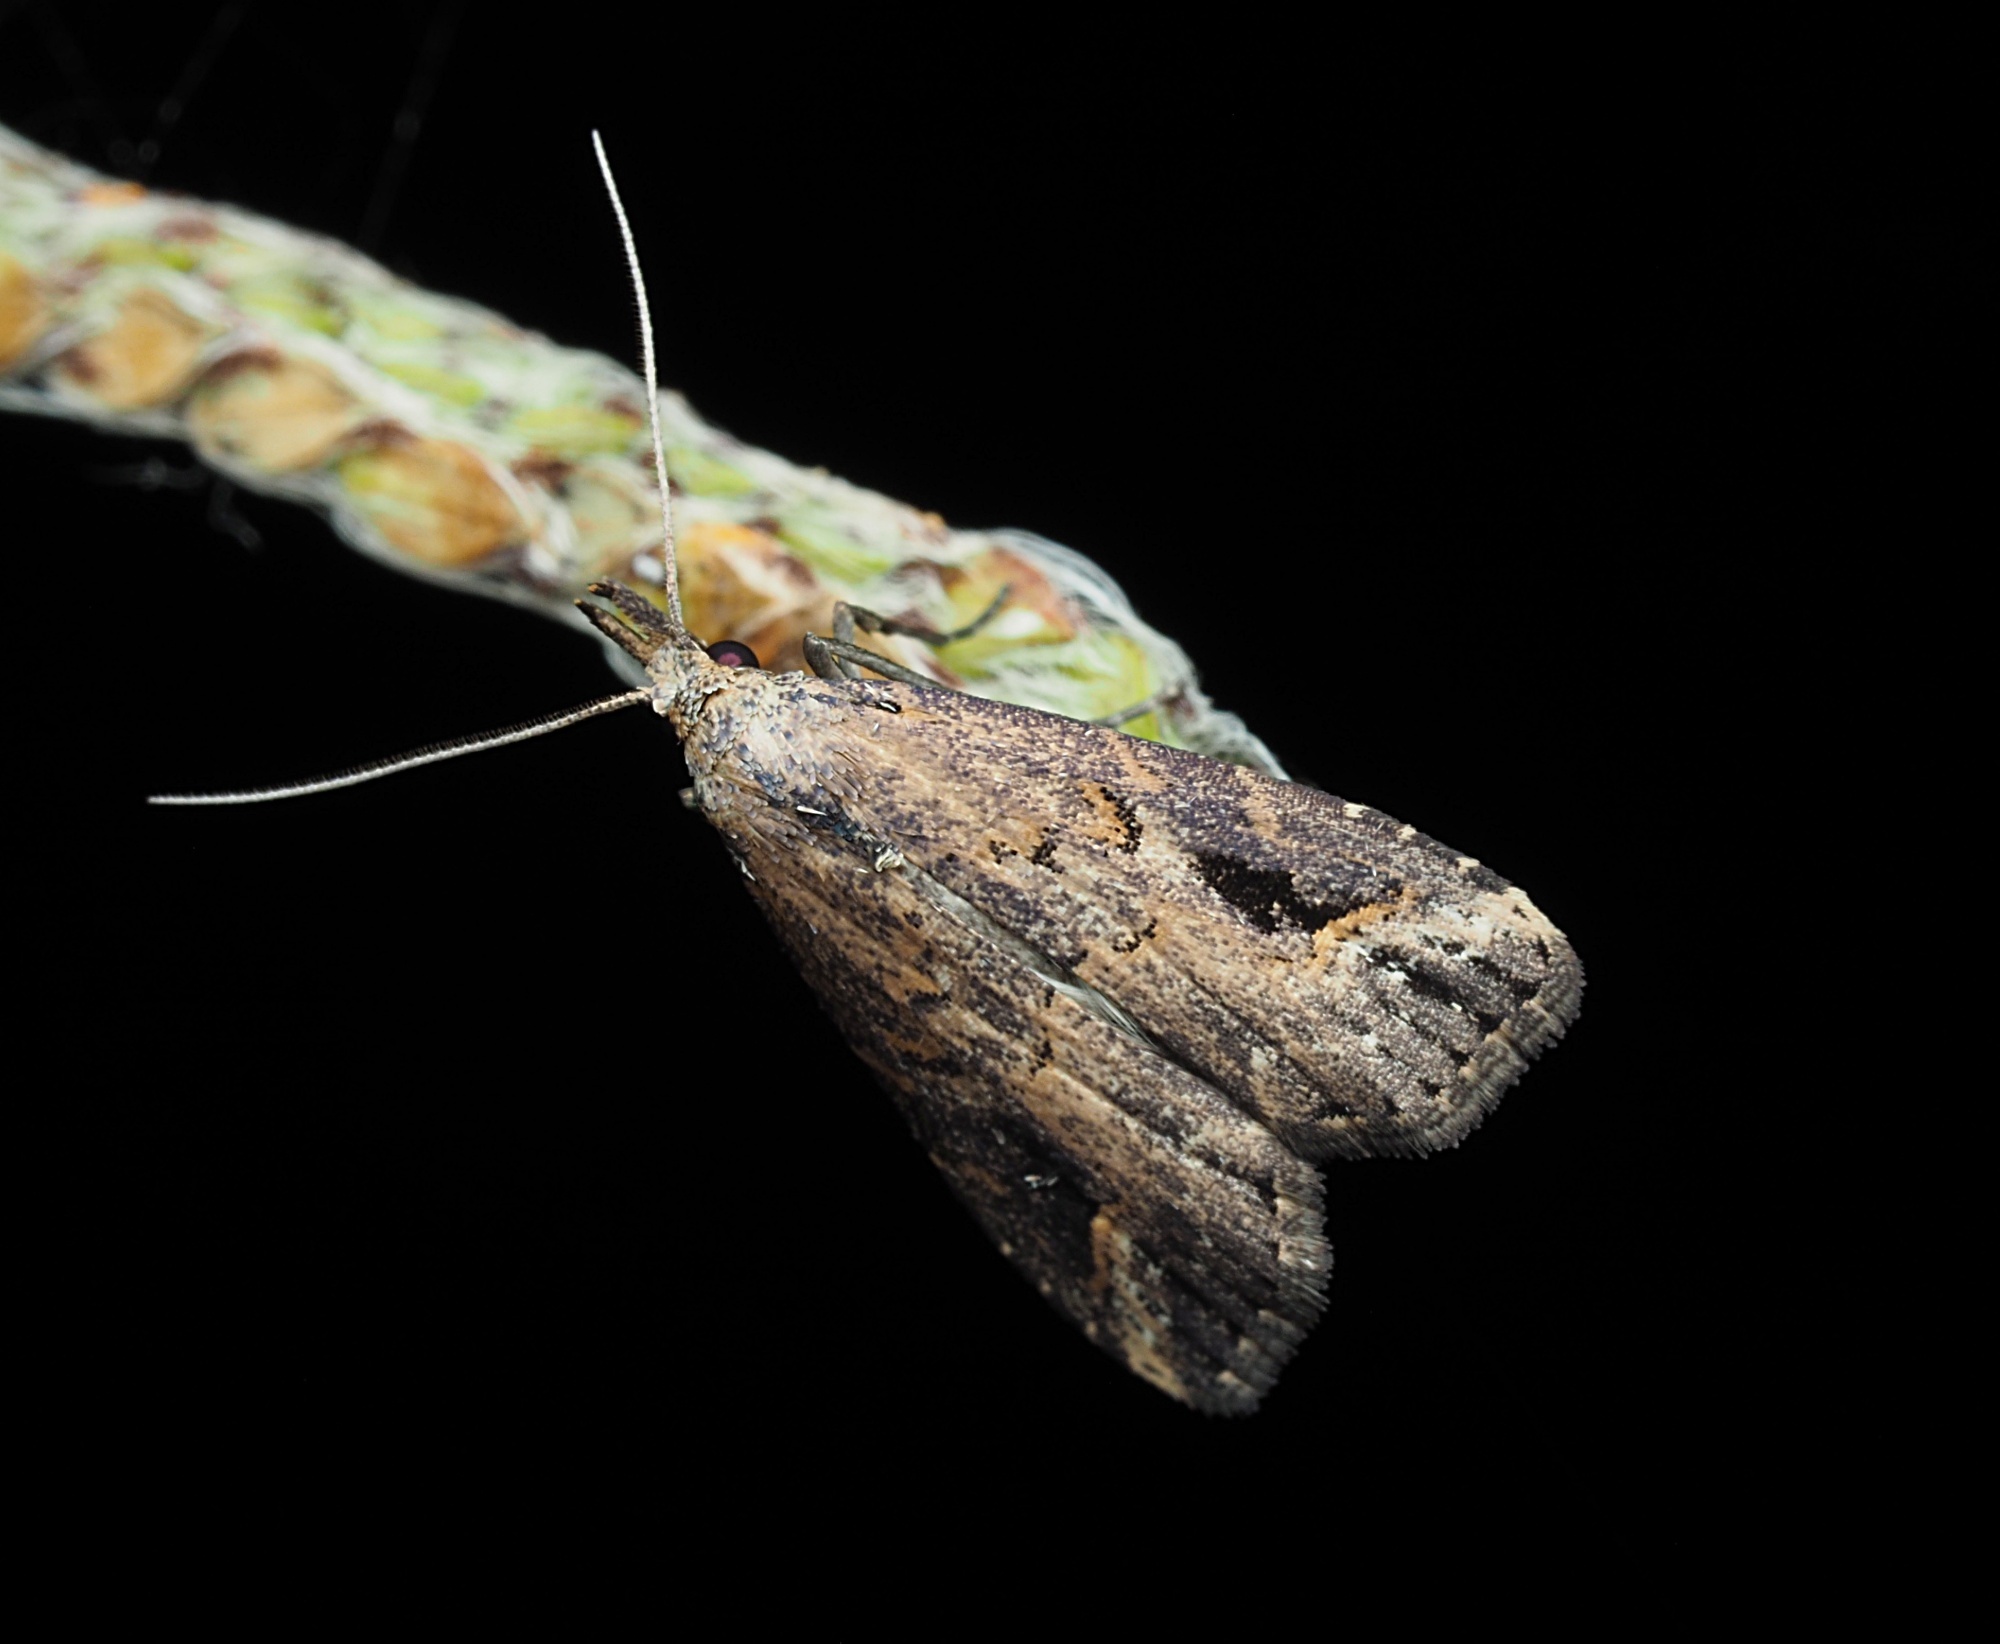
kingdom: Animalia
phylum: Arthropoda
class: Insecta
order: Lepidoptera
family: Erebidae
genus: Schrankia
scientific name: Schrankia costaestrigalis
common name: Pinion-streaked snout
